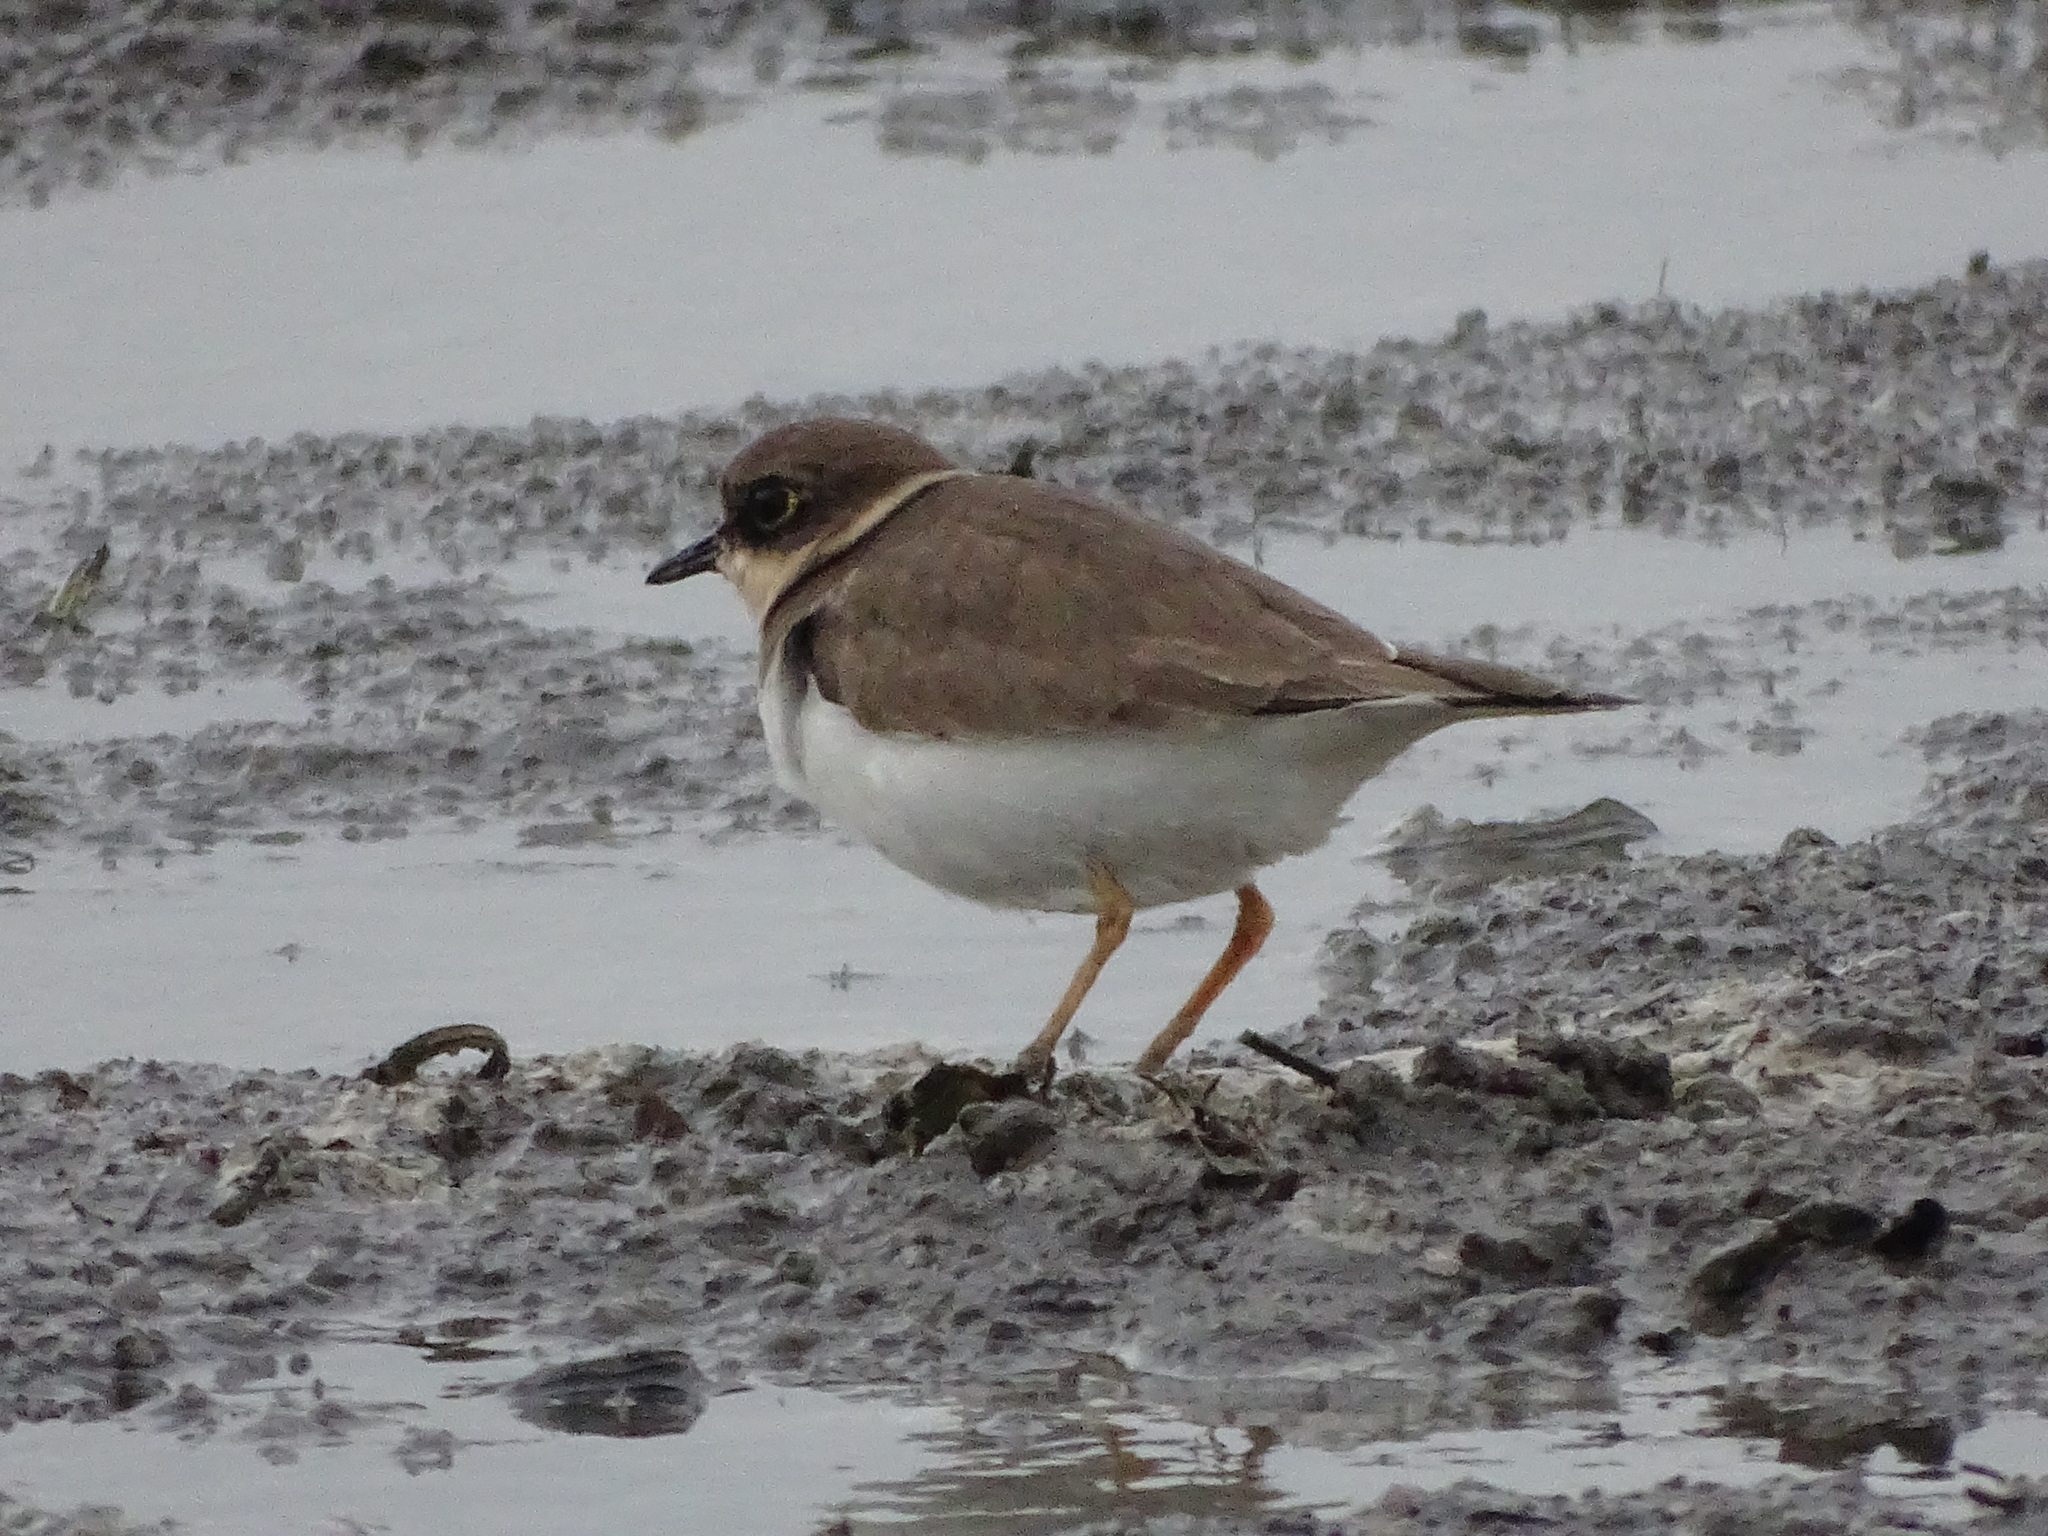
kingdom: Animalia
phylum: Chordata
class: Aves
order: Charadriiformes
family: Charadriidae
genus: Charadrius
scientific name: Charadrius dubius
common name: Little ringed plover
